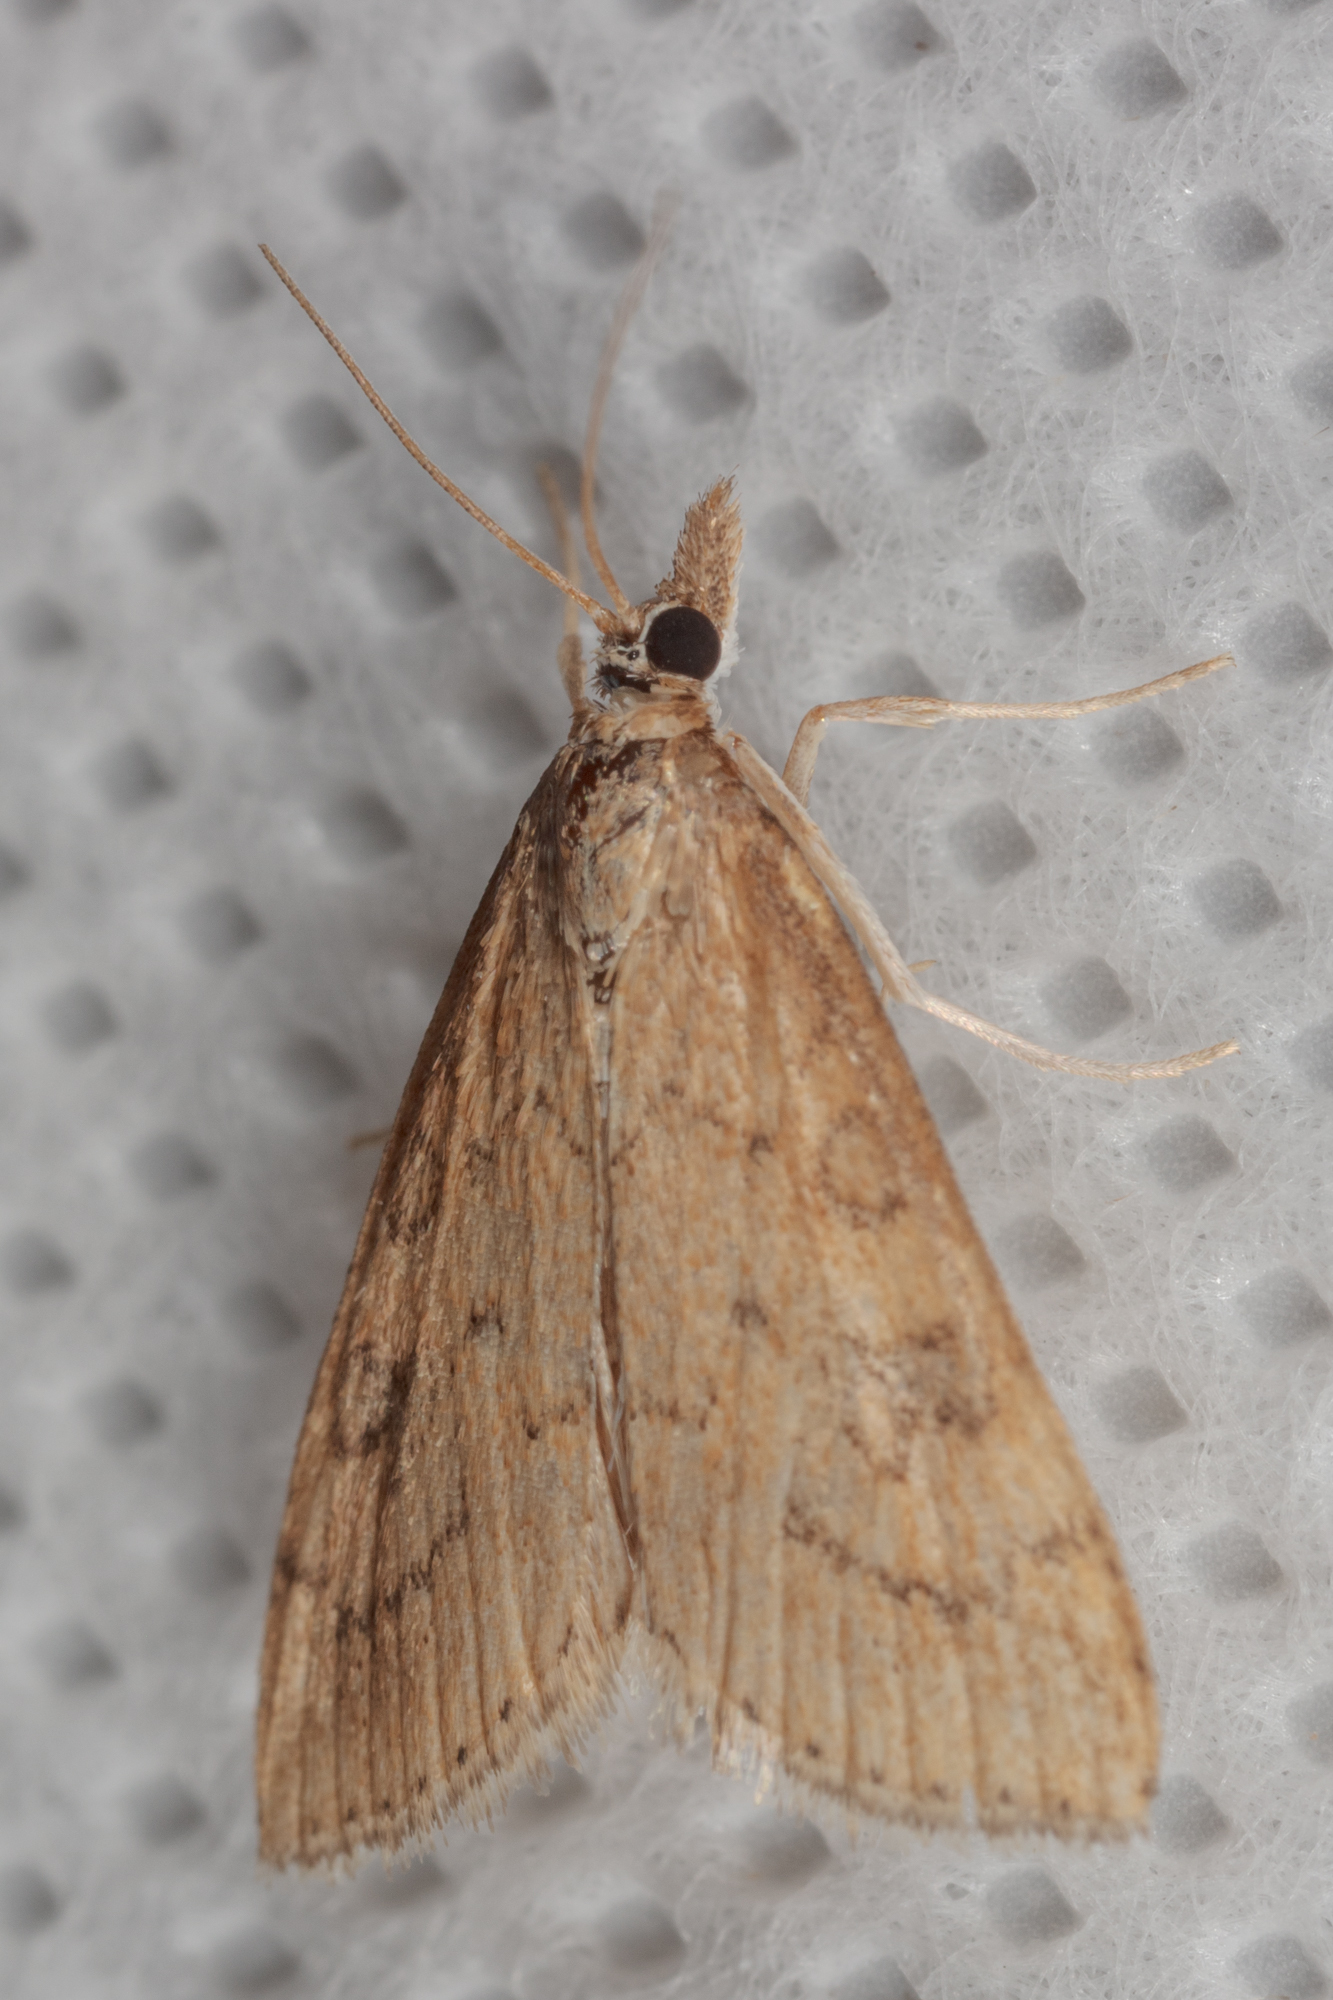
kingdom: Animalia
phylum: Arthropoda
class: Insecta
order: Lepidoptera
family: Crambidae
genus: Udea
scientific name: Udea rubigalis
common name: Celery leaftier moth
